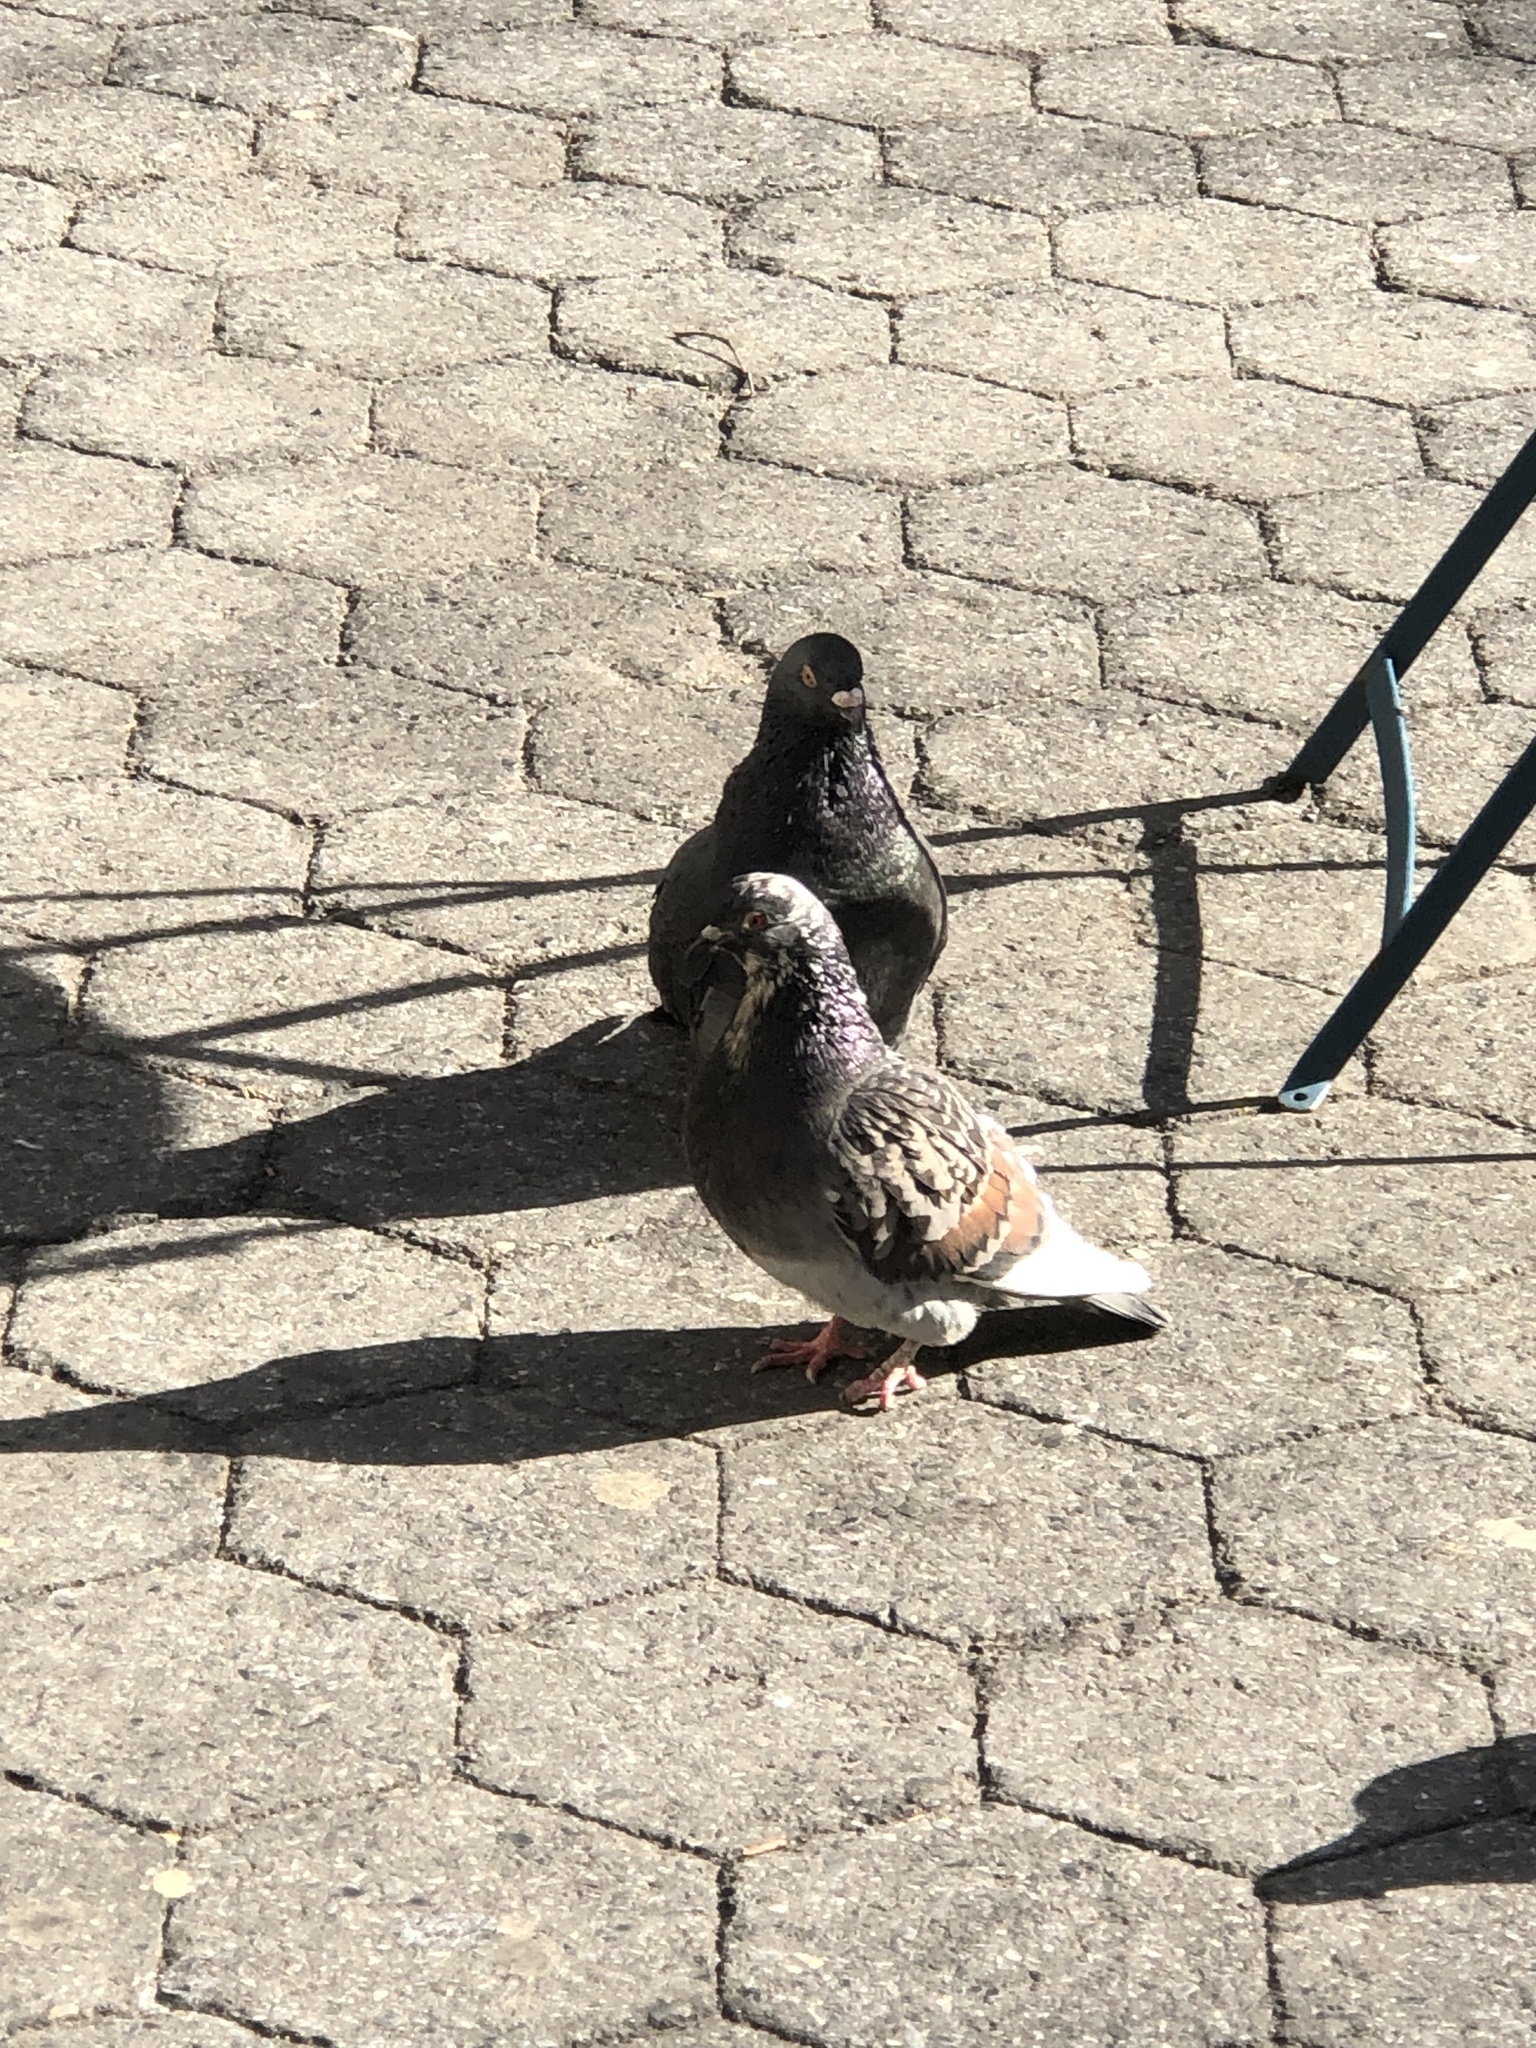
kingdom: Animalia
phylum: Chordata
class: Aves
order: Columbiformes
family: Columbidae
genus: Columba
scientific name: Columba livia
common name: Rock pigeon
